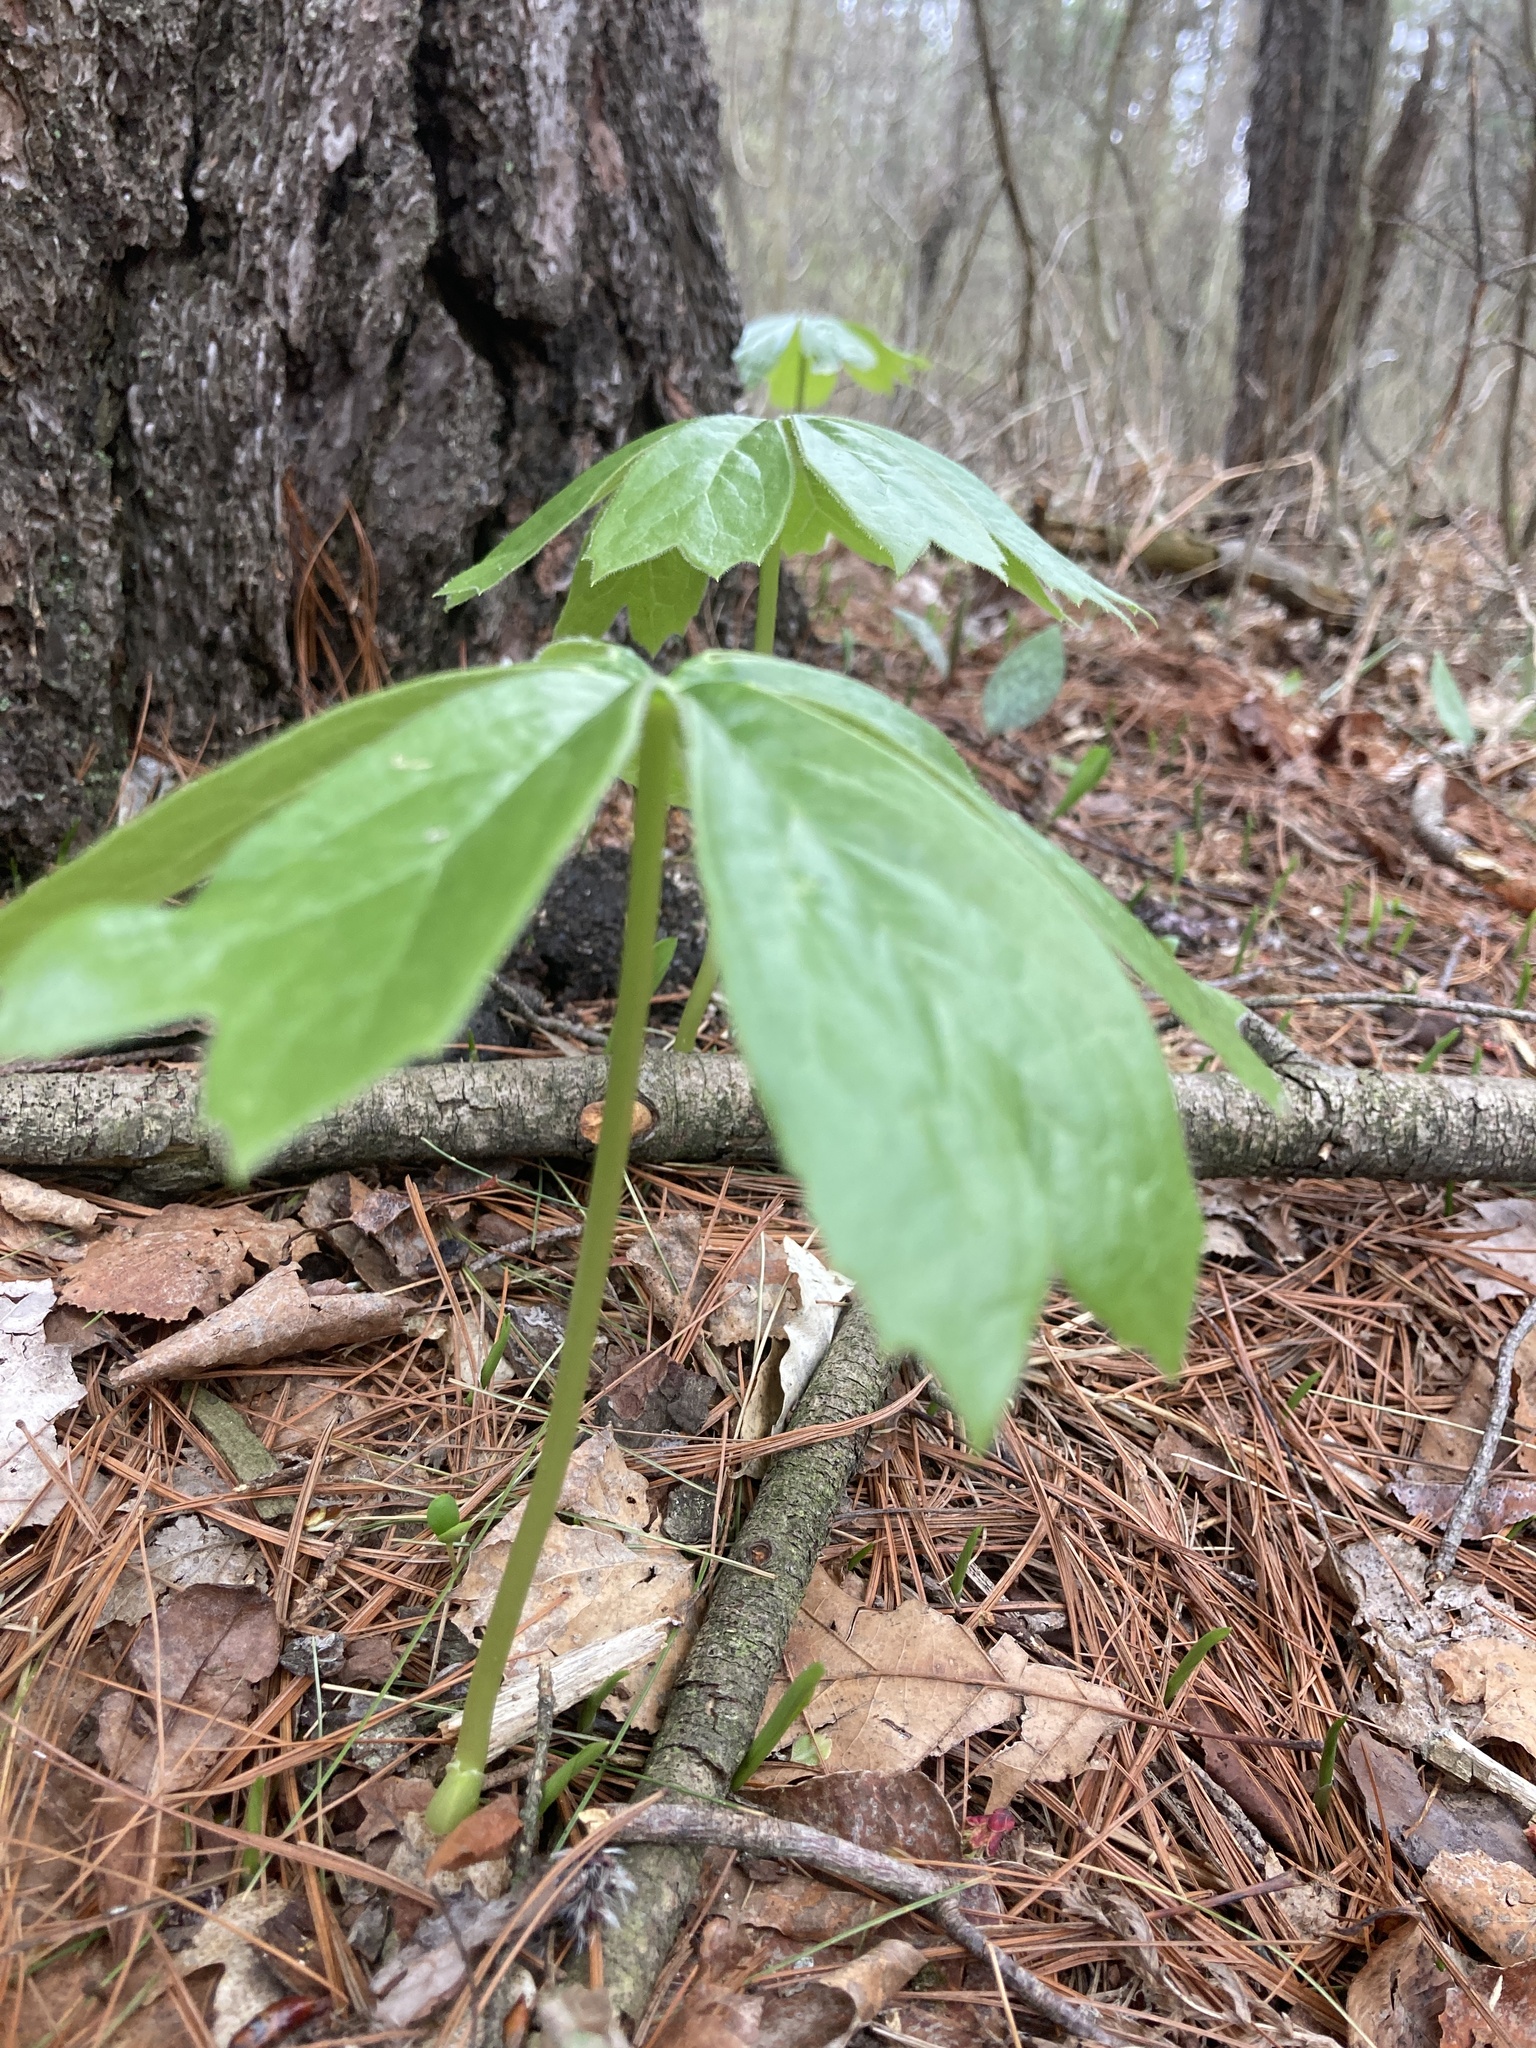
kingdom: Plantae
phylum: Tracheophyta
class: Magnoliopsida
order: Ranunculales
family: Berberidaceae
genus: Podophyllum
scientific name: Podophyllum peltatum
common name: Wild mandrake
